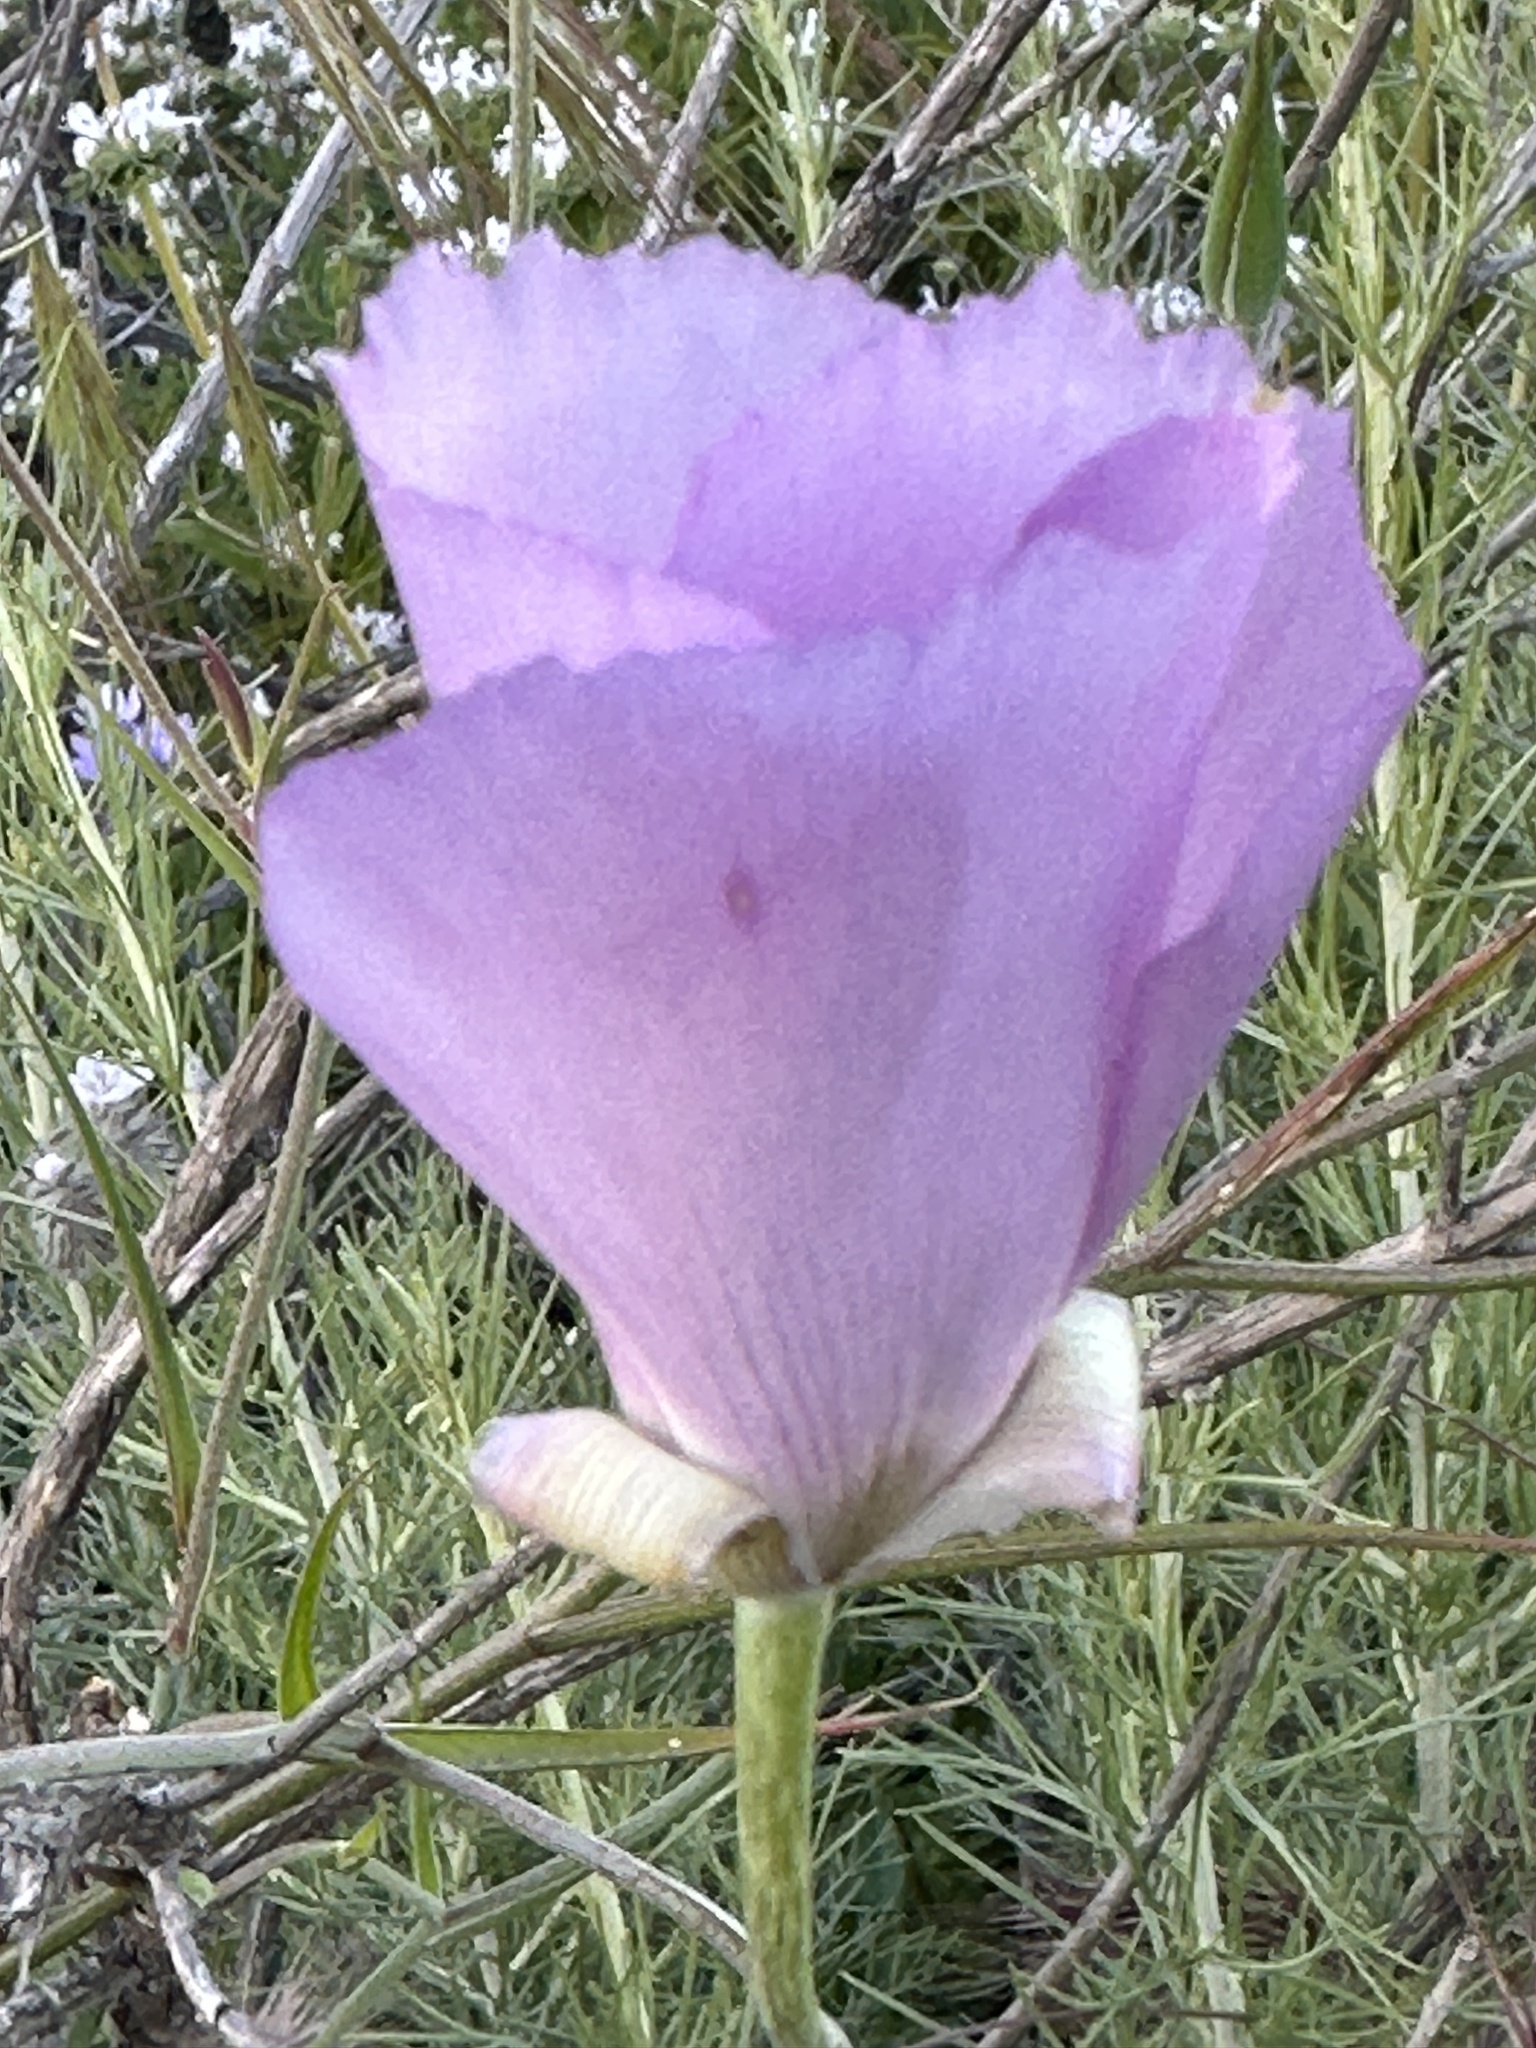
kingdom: Plantae
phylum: Tracheophyta
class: Liliopsida
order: Liliales
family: Liliaceae
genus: Calochortus
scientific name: Calochortus splendens
